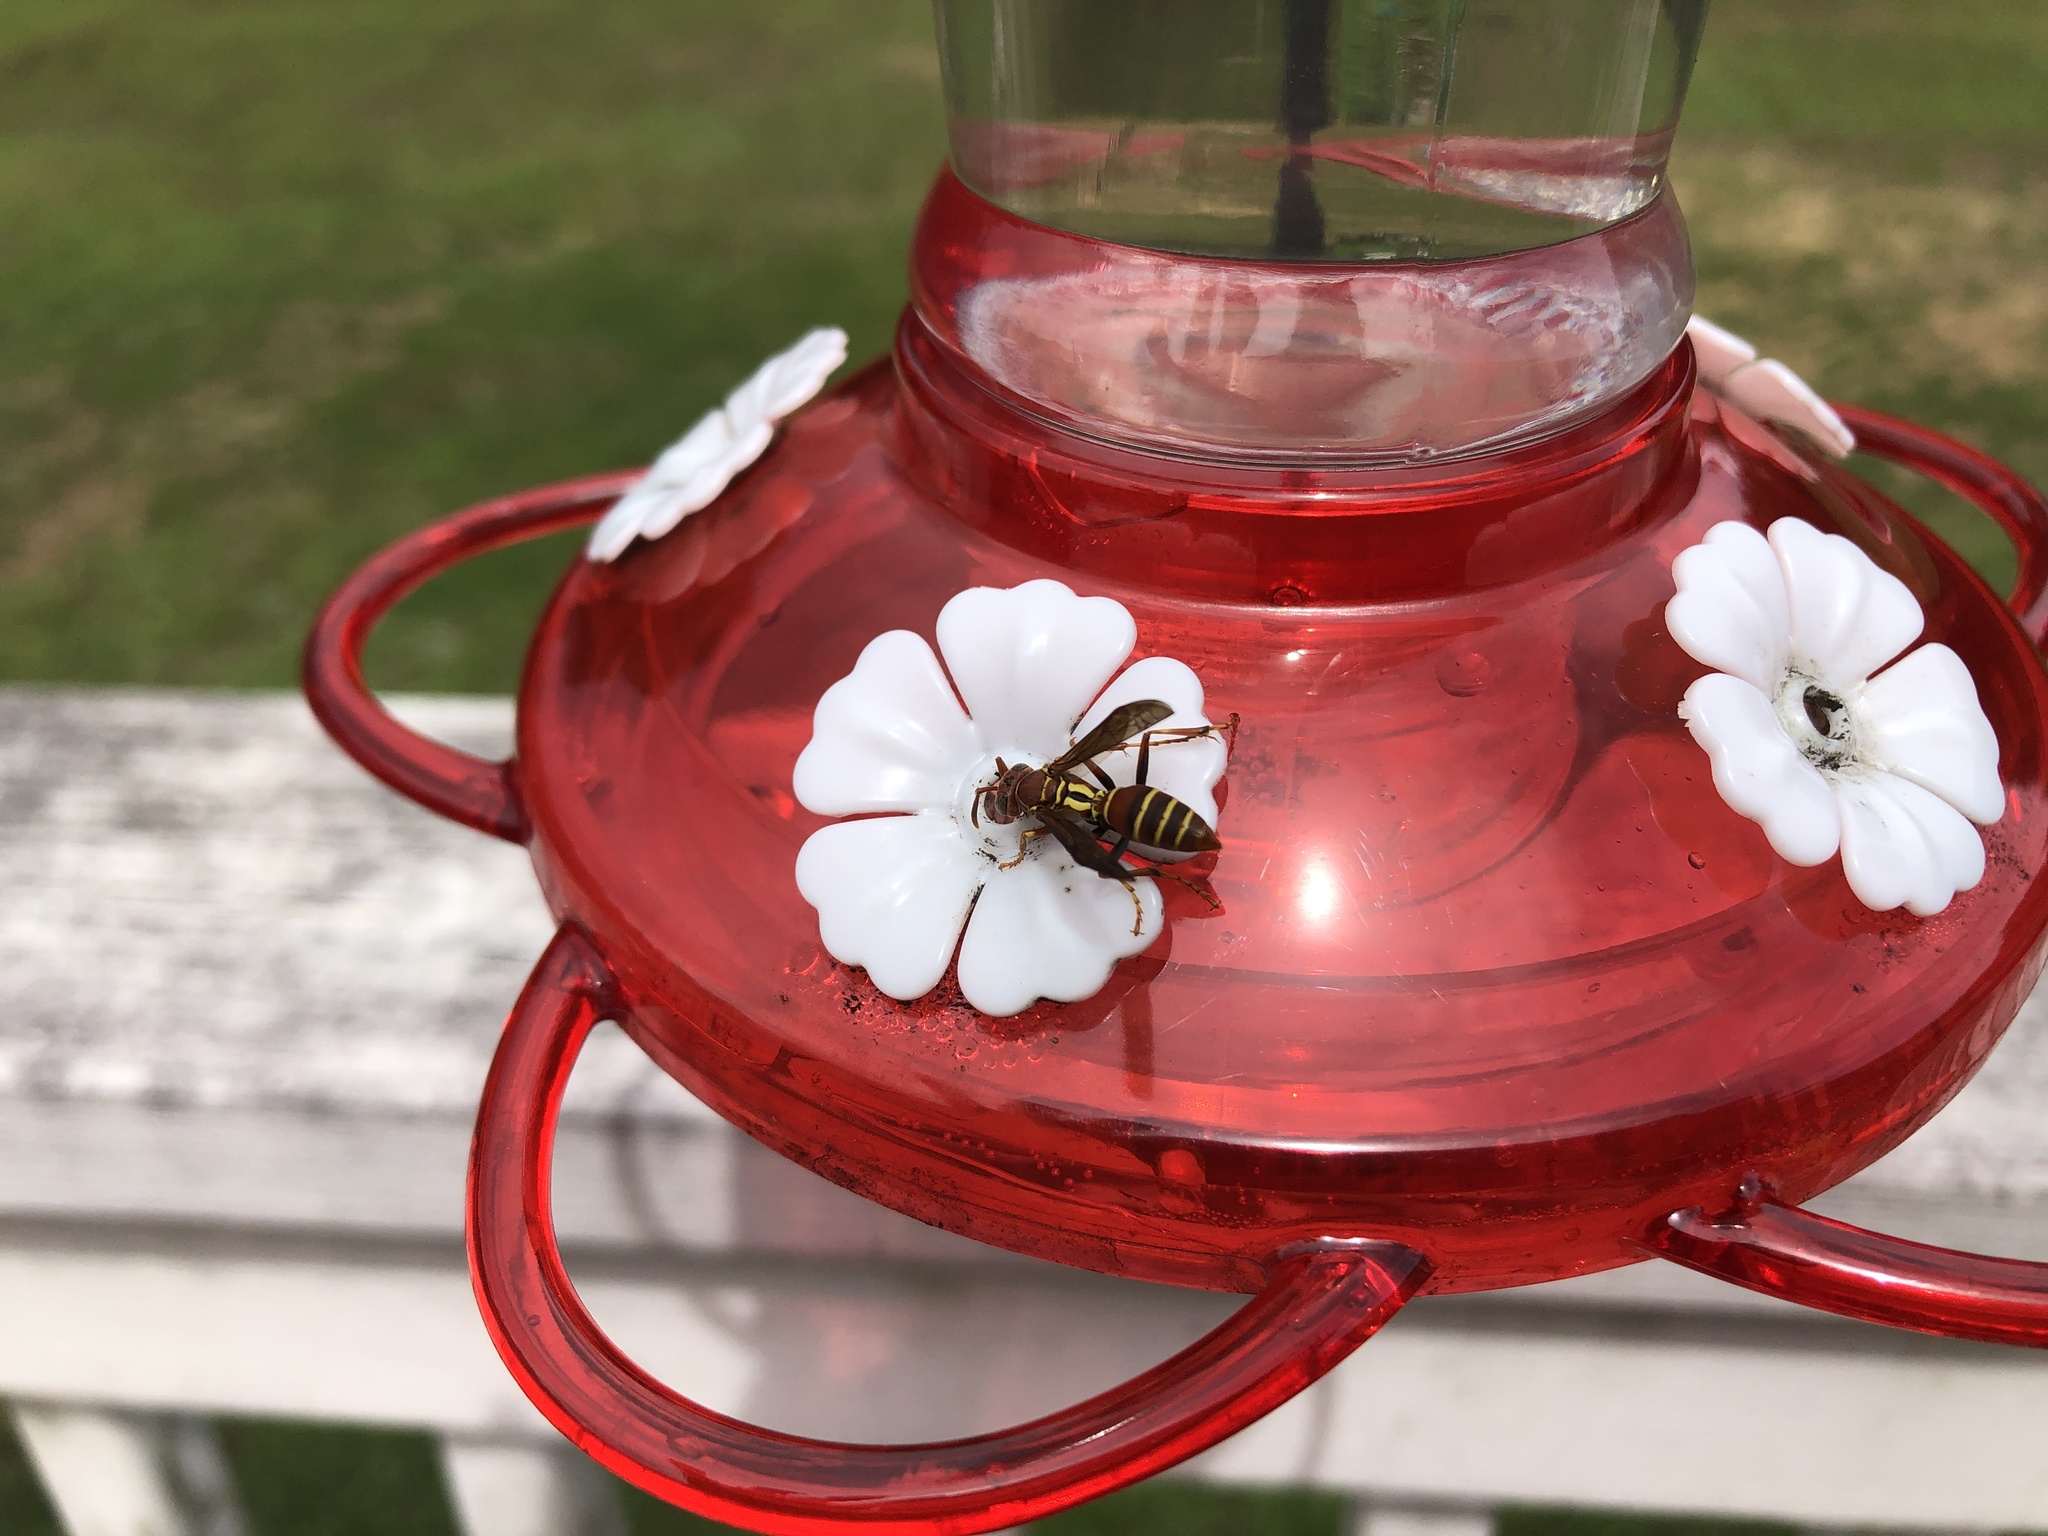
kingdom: Animalia
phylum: Arthropoda
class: Insecta
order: Hymenoptera
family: Eumenidae
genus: Polistes
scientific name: Polistes dorsalis
